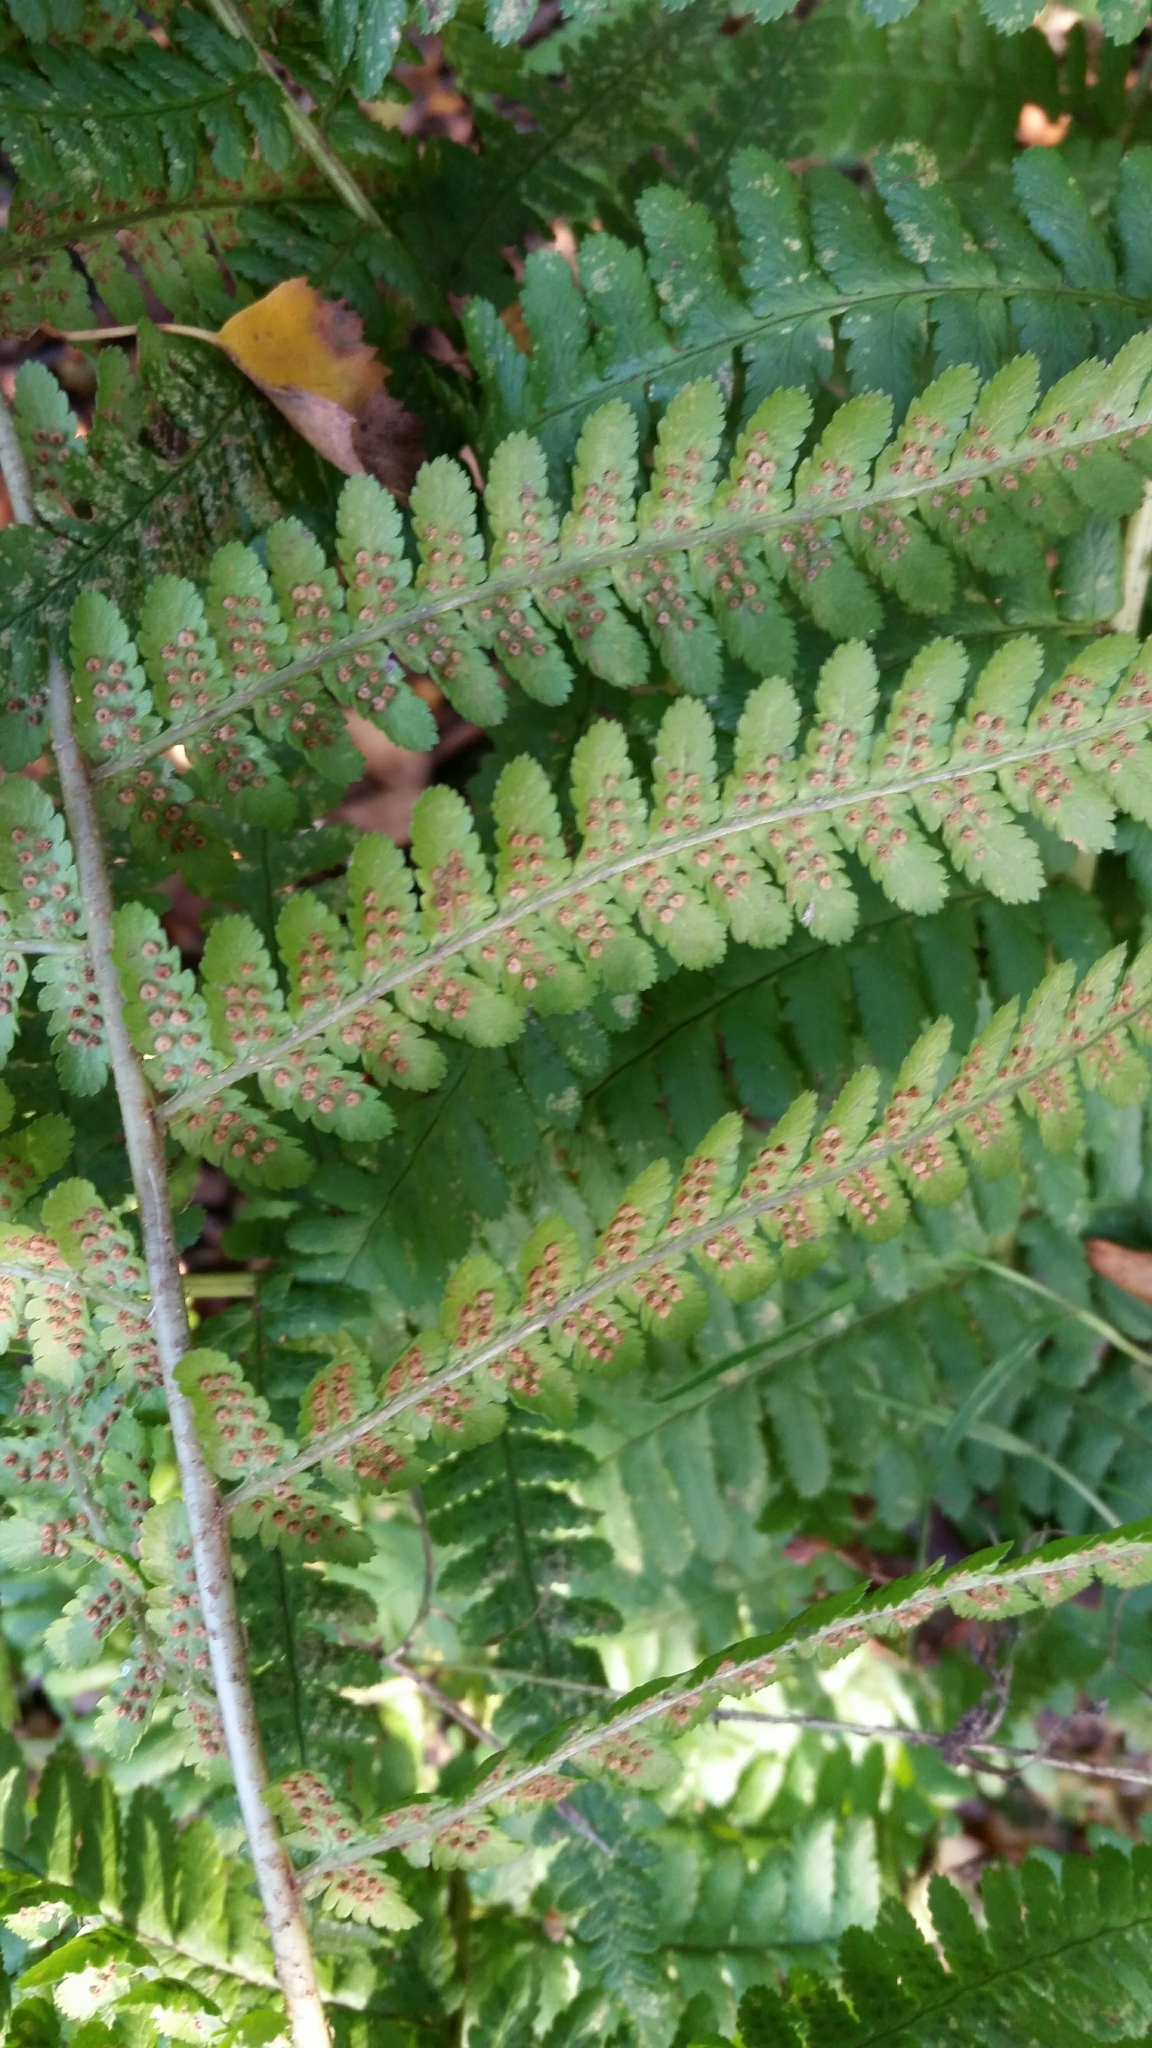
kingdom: Plantae
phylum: Tracheophyta
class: Polypodiopsida
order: Polypodiales
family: Dryopteridaceae
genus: Dryopteris
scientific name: Dryopteris filix-mas
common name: Male fern
